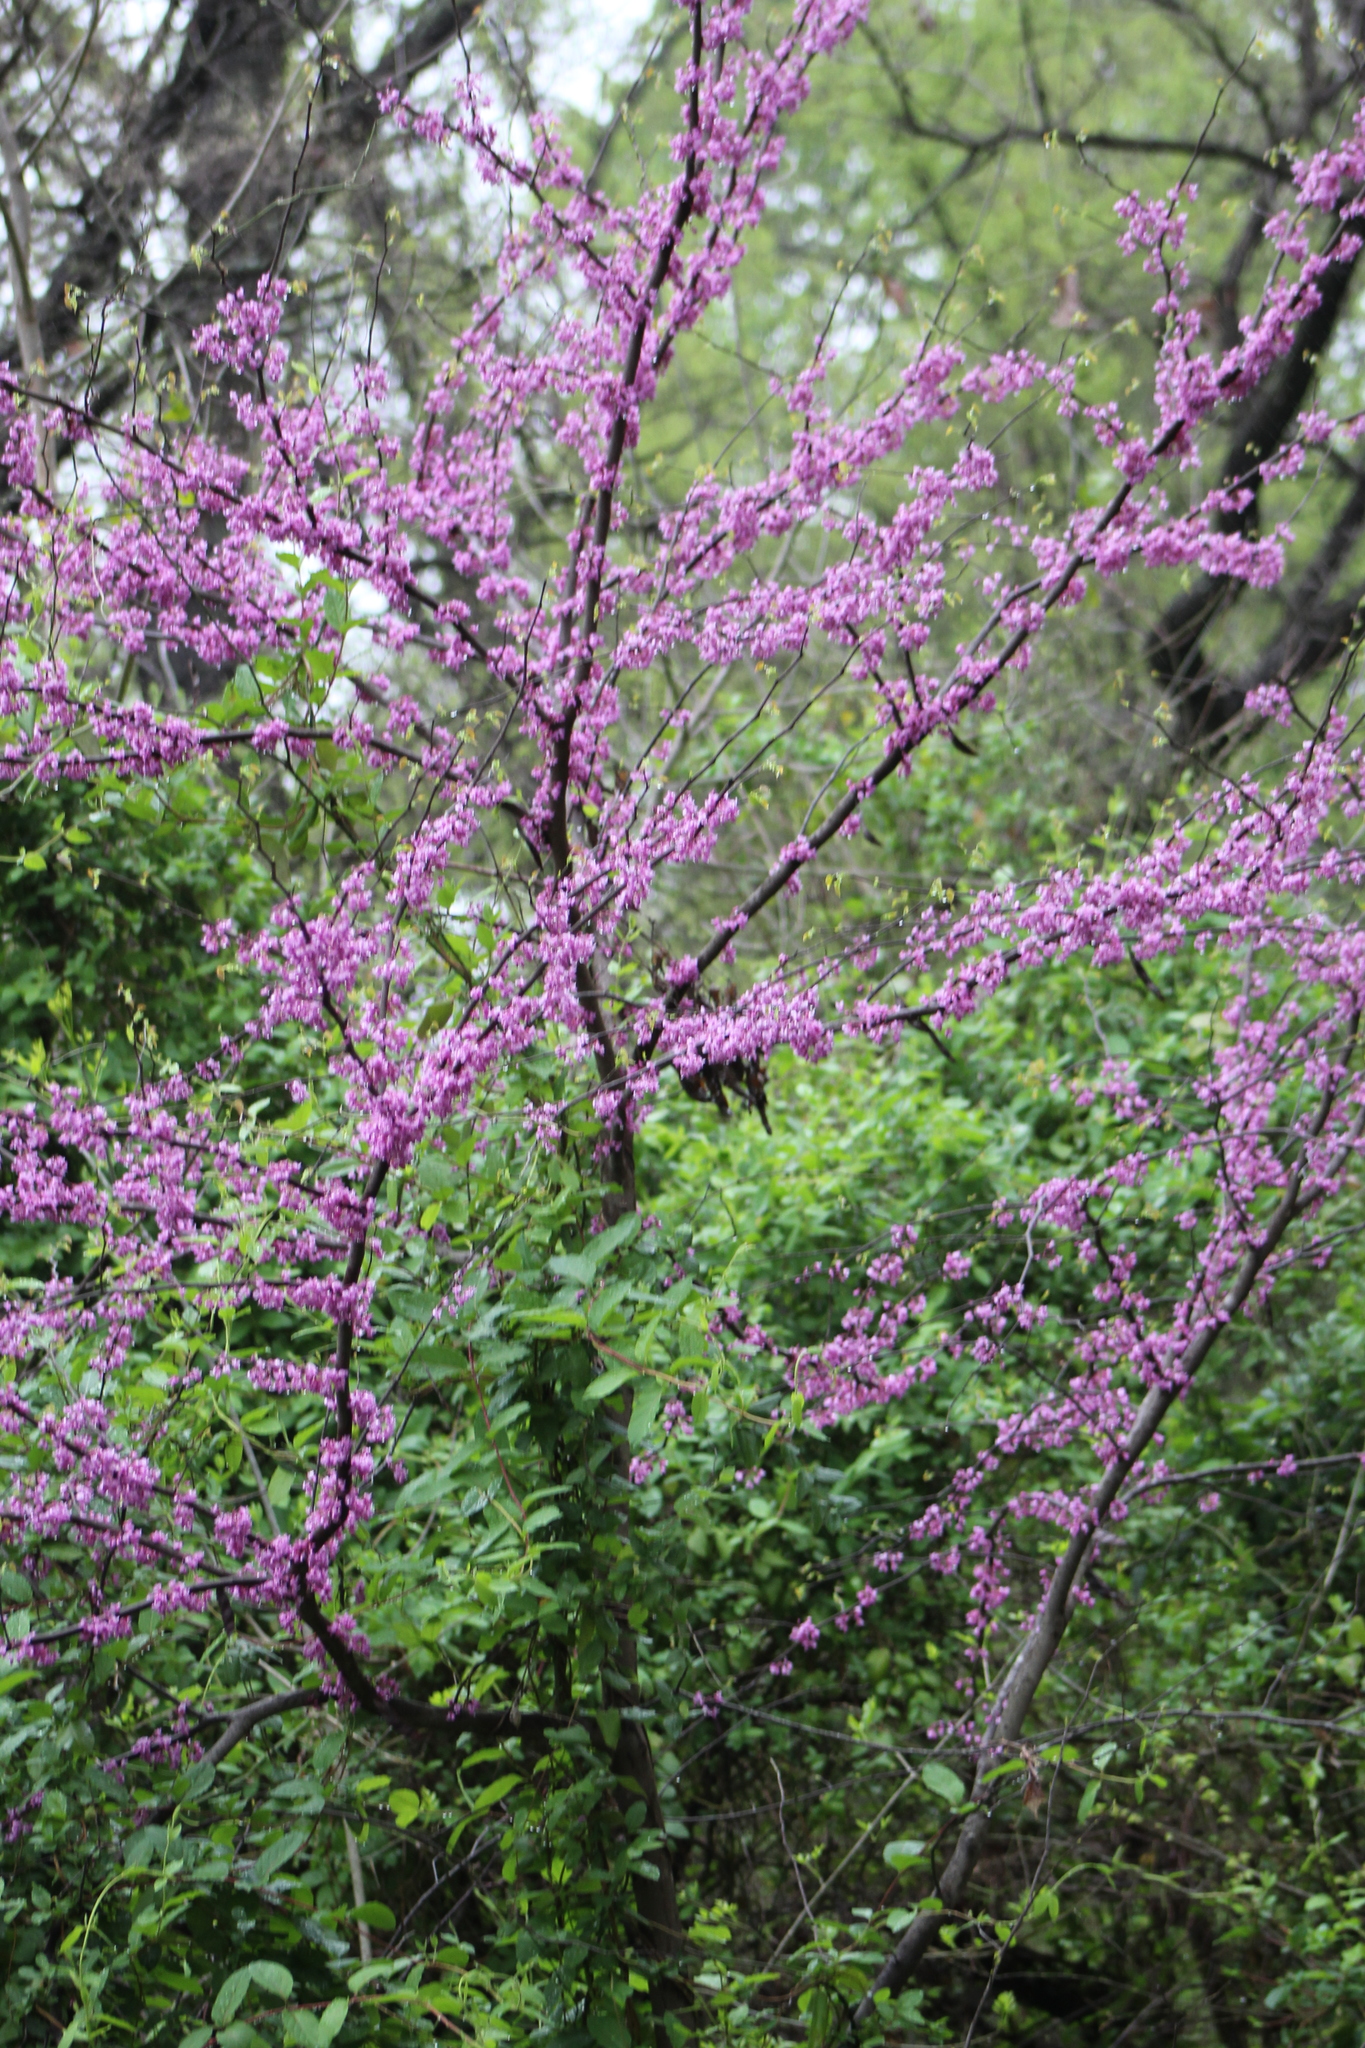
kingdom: Plantae
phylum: Tracheophyta
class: Magnoliopsida
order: Fabales
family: Fabaceae
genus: Cercis
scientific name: Cercis canadensis
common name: Eastern redbud
